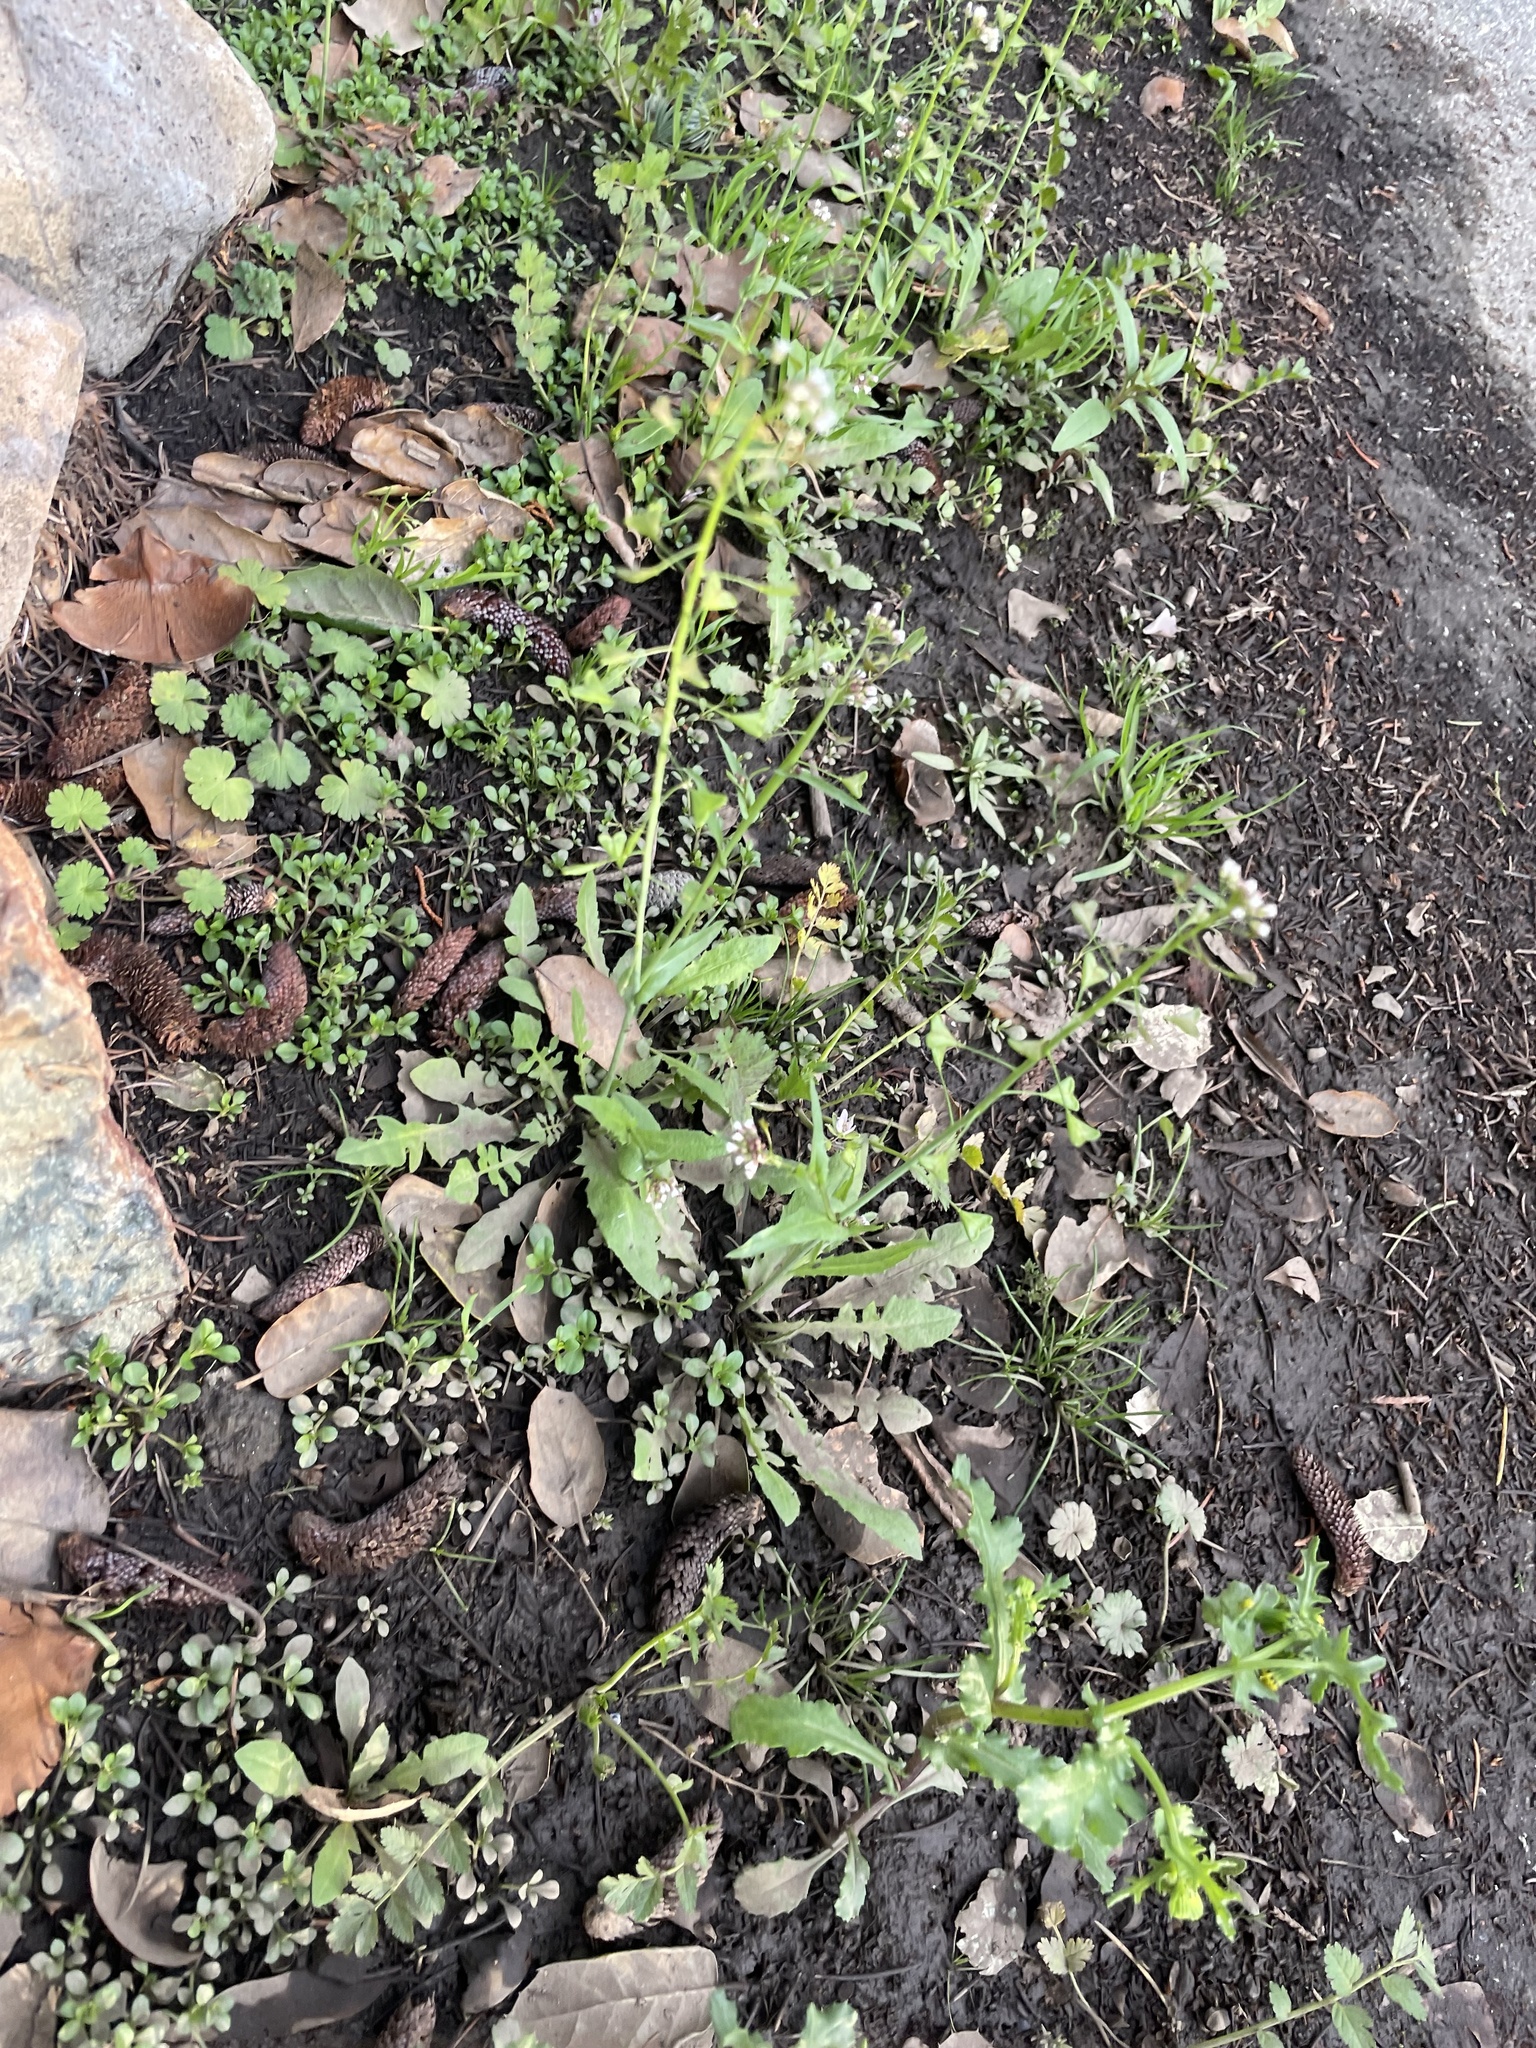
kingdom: Plantae
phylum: Tracheophyta
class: Magnoliopsida
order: Brassicales
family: Brassicaceae
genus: Capsella
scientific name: Capsella bursa-pastoris
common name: Shepherd's purse
